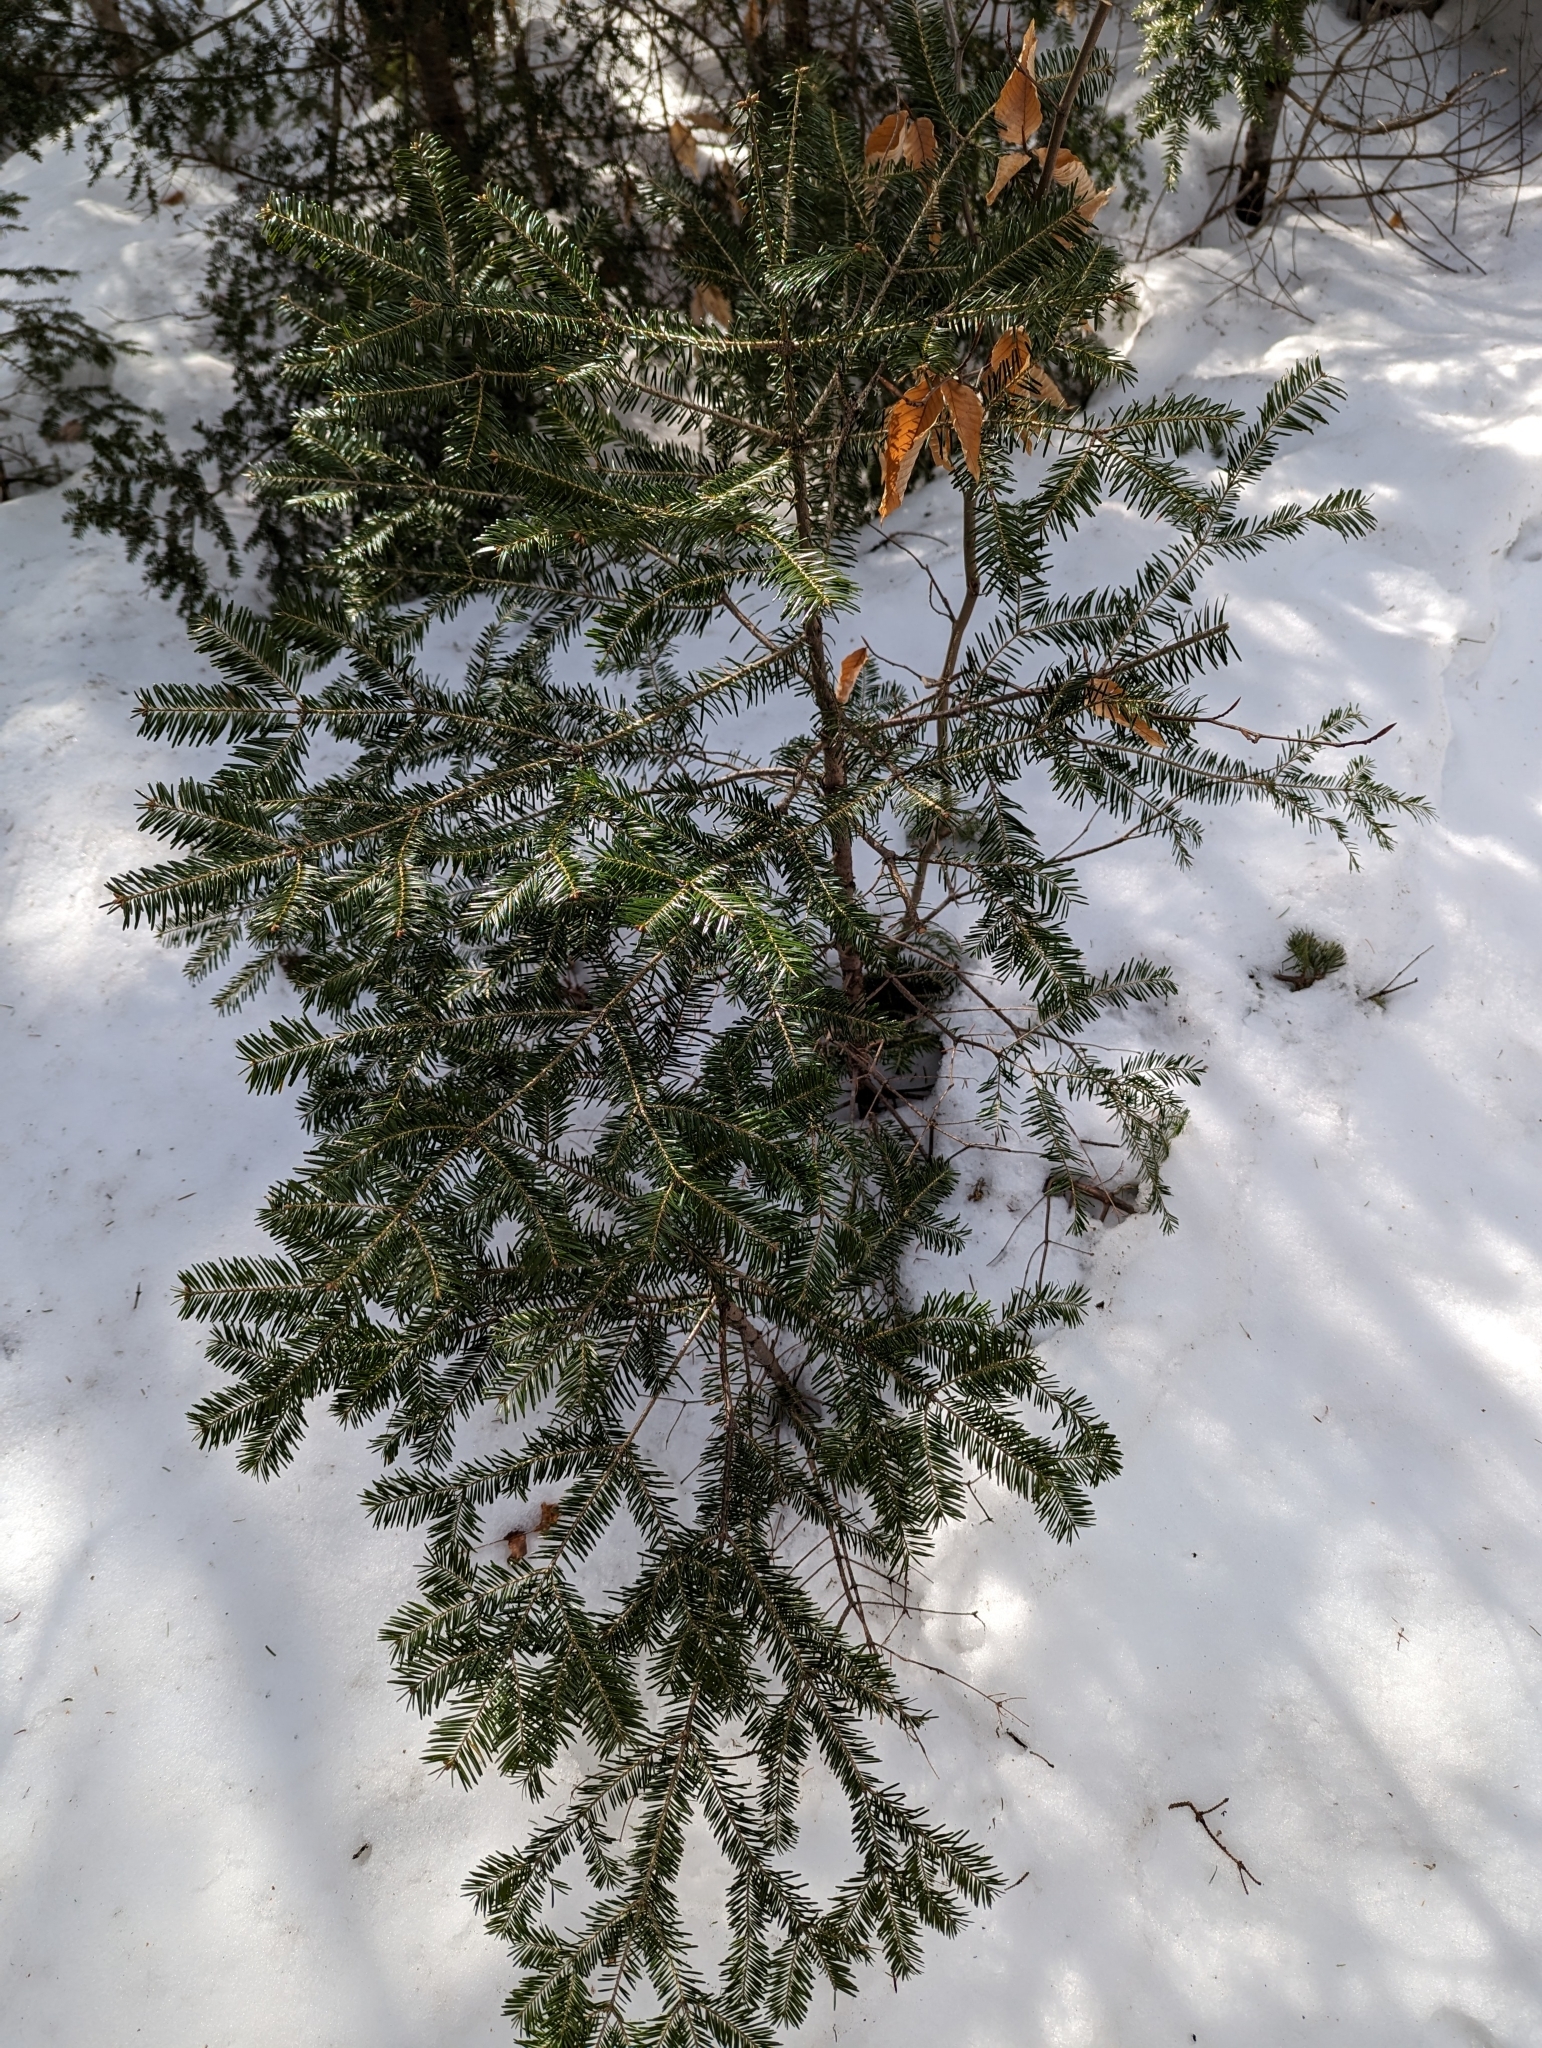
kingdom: Plantae
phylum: Tracheophyta
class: Pinopsida
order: Pinales
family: Pinaceae
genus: Abies
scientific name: Abies balsamea
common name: Balsam fir
